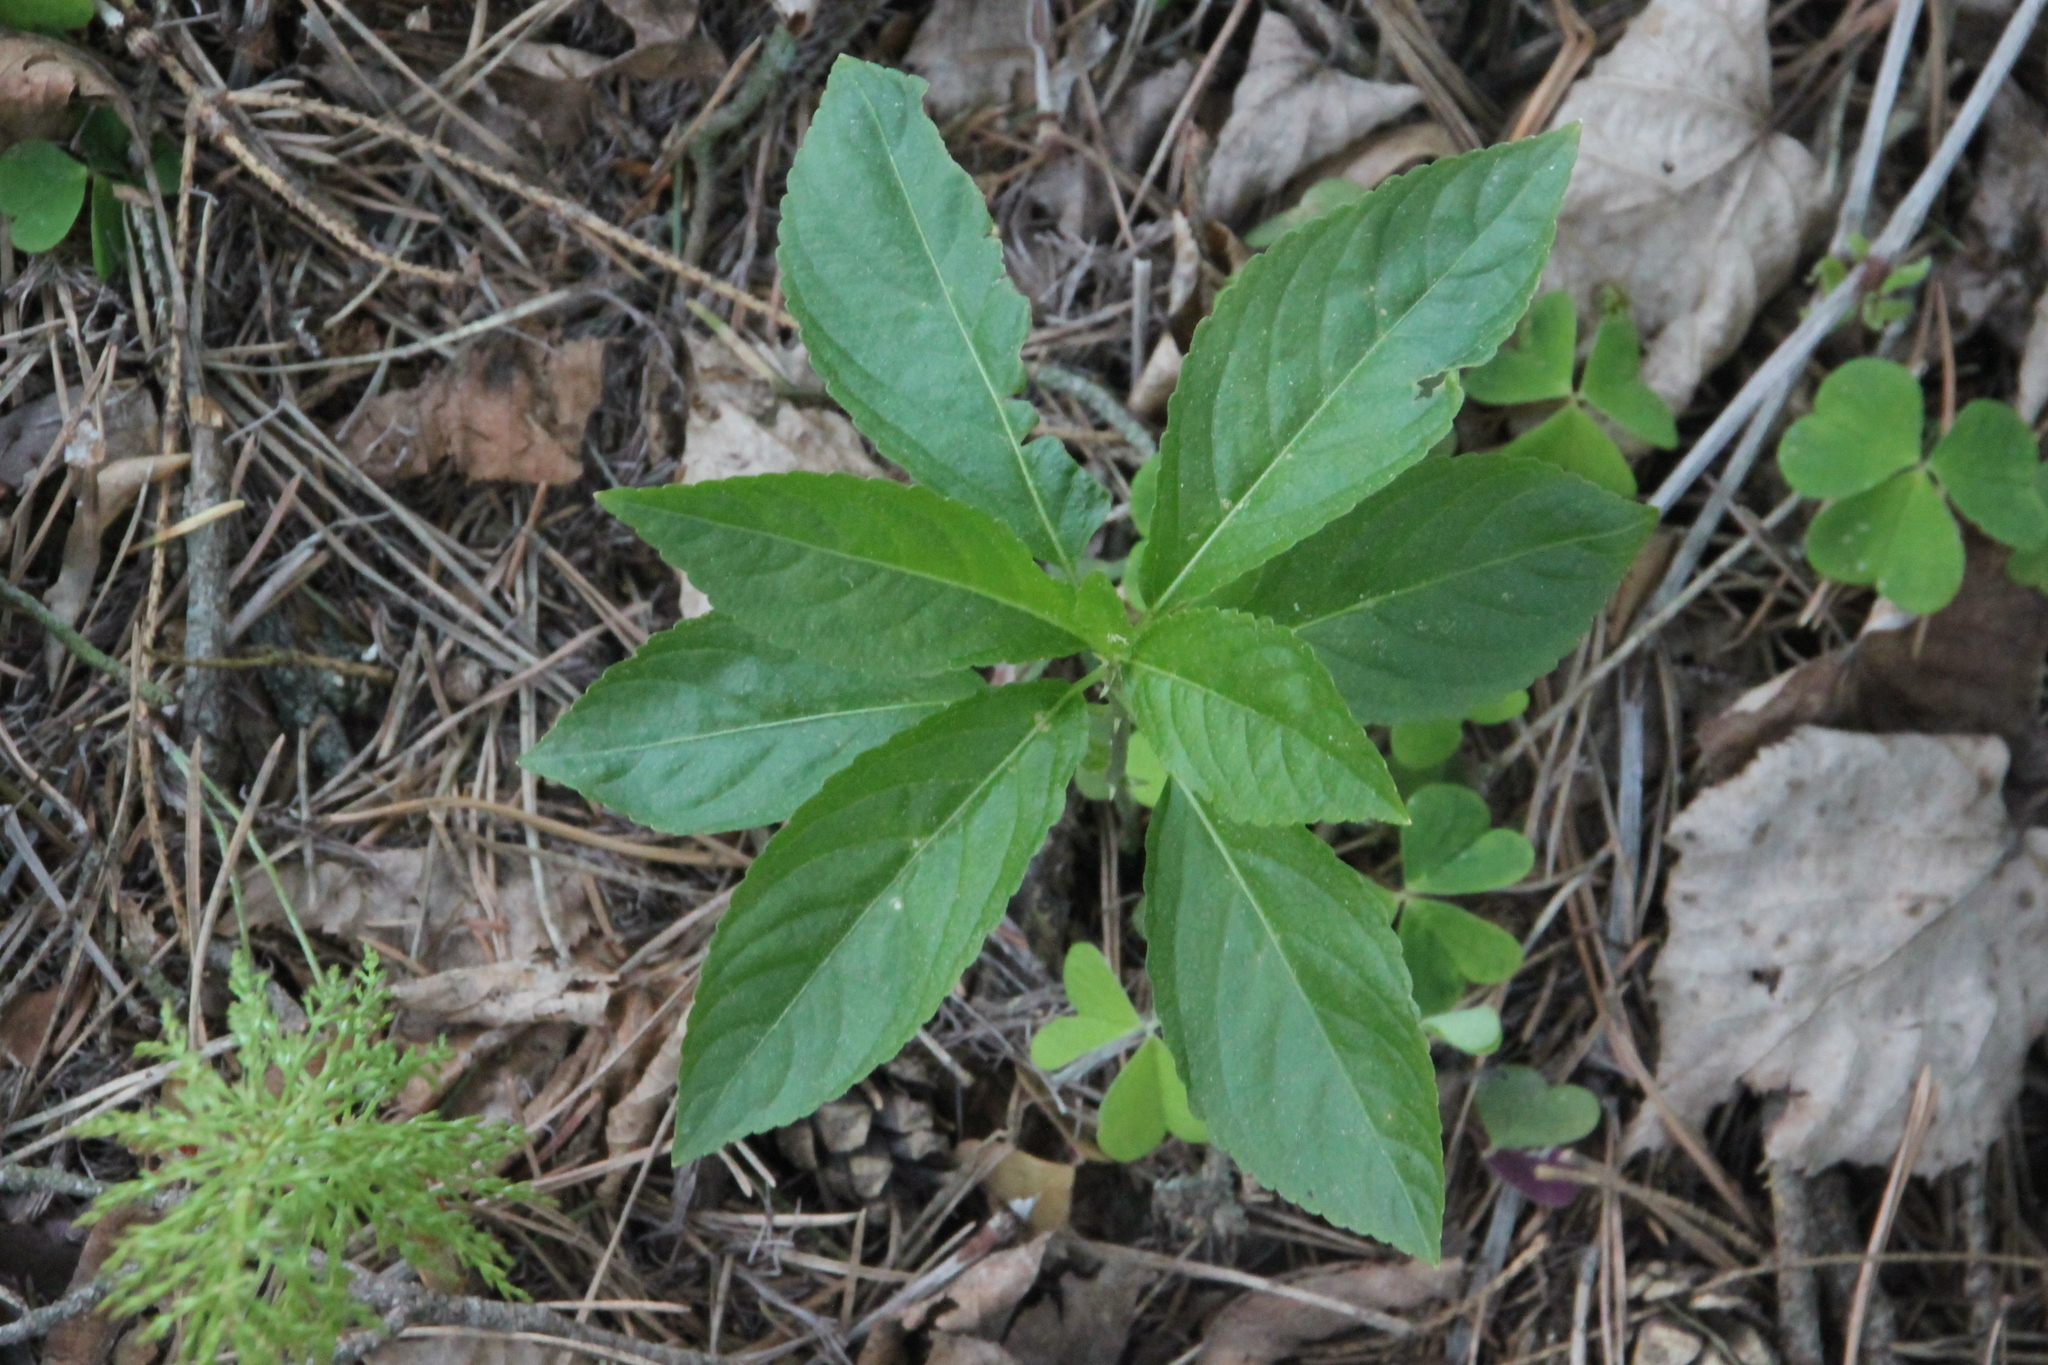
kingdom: Plantae
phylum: Tracheophyta
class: Magnoliopsida
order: Malpighiales
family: Euphorbiaceae
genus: Mercurialis
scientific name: Mercurialis perennis
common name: Dog mercury
